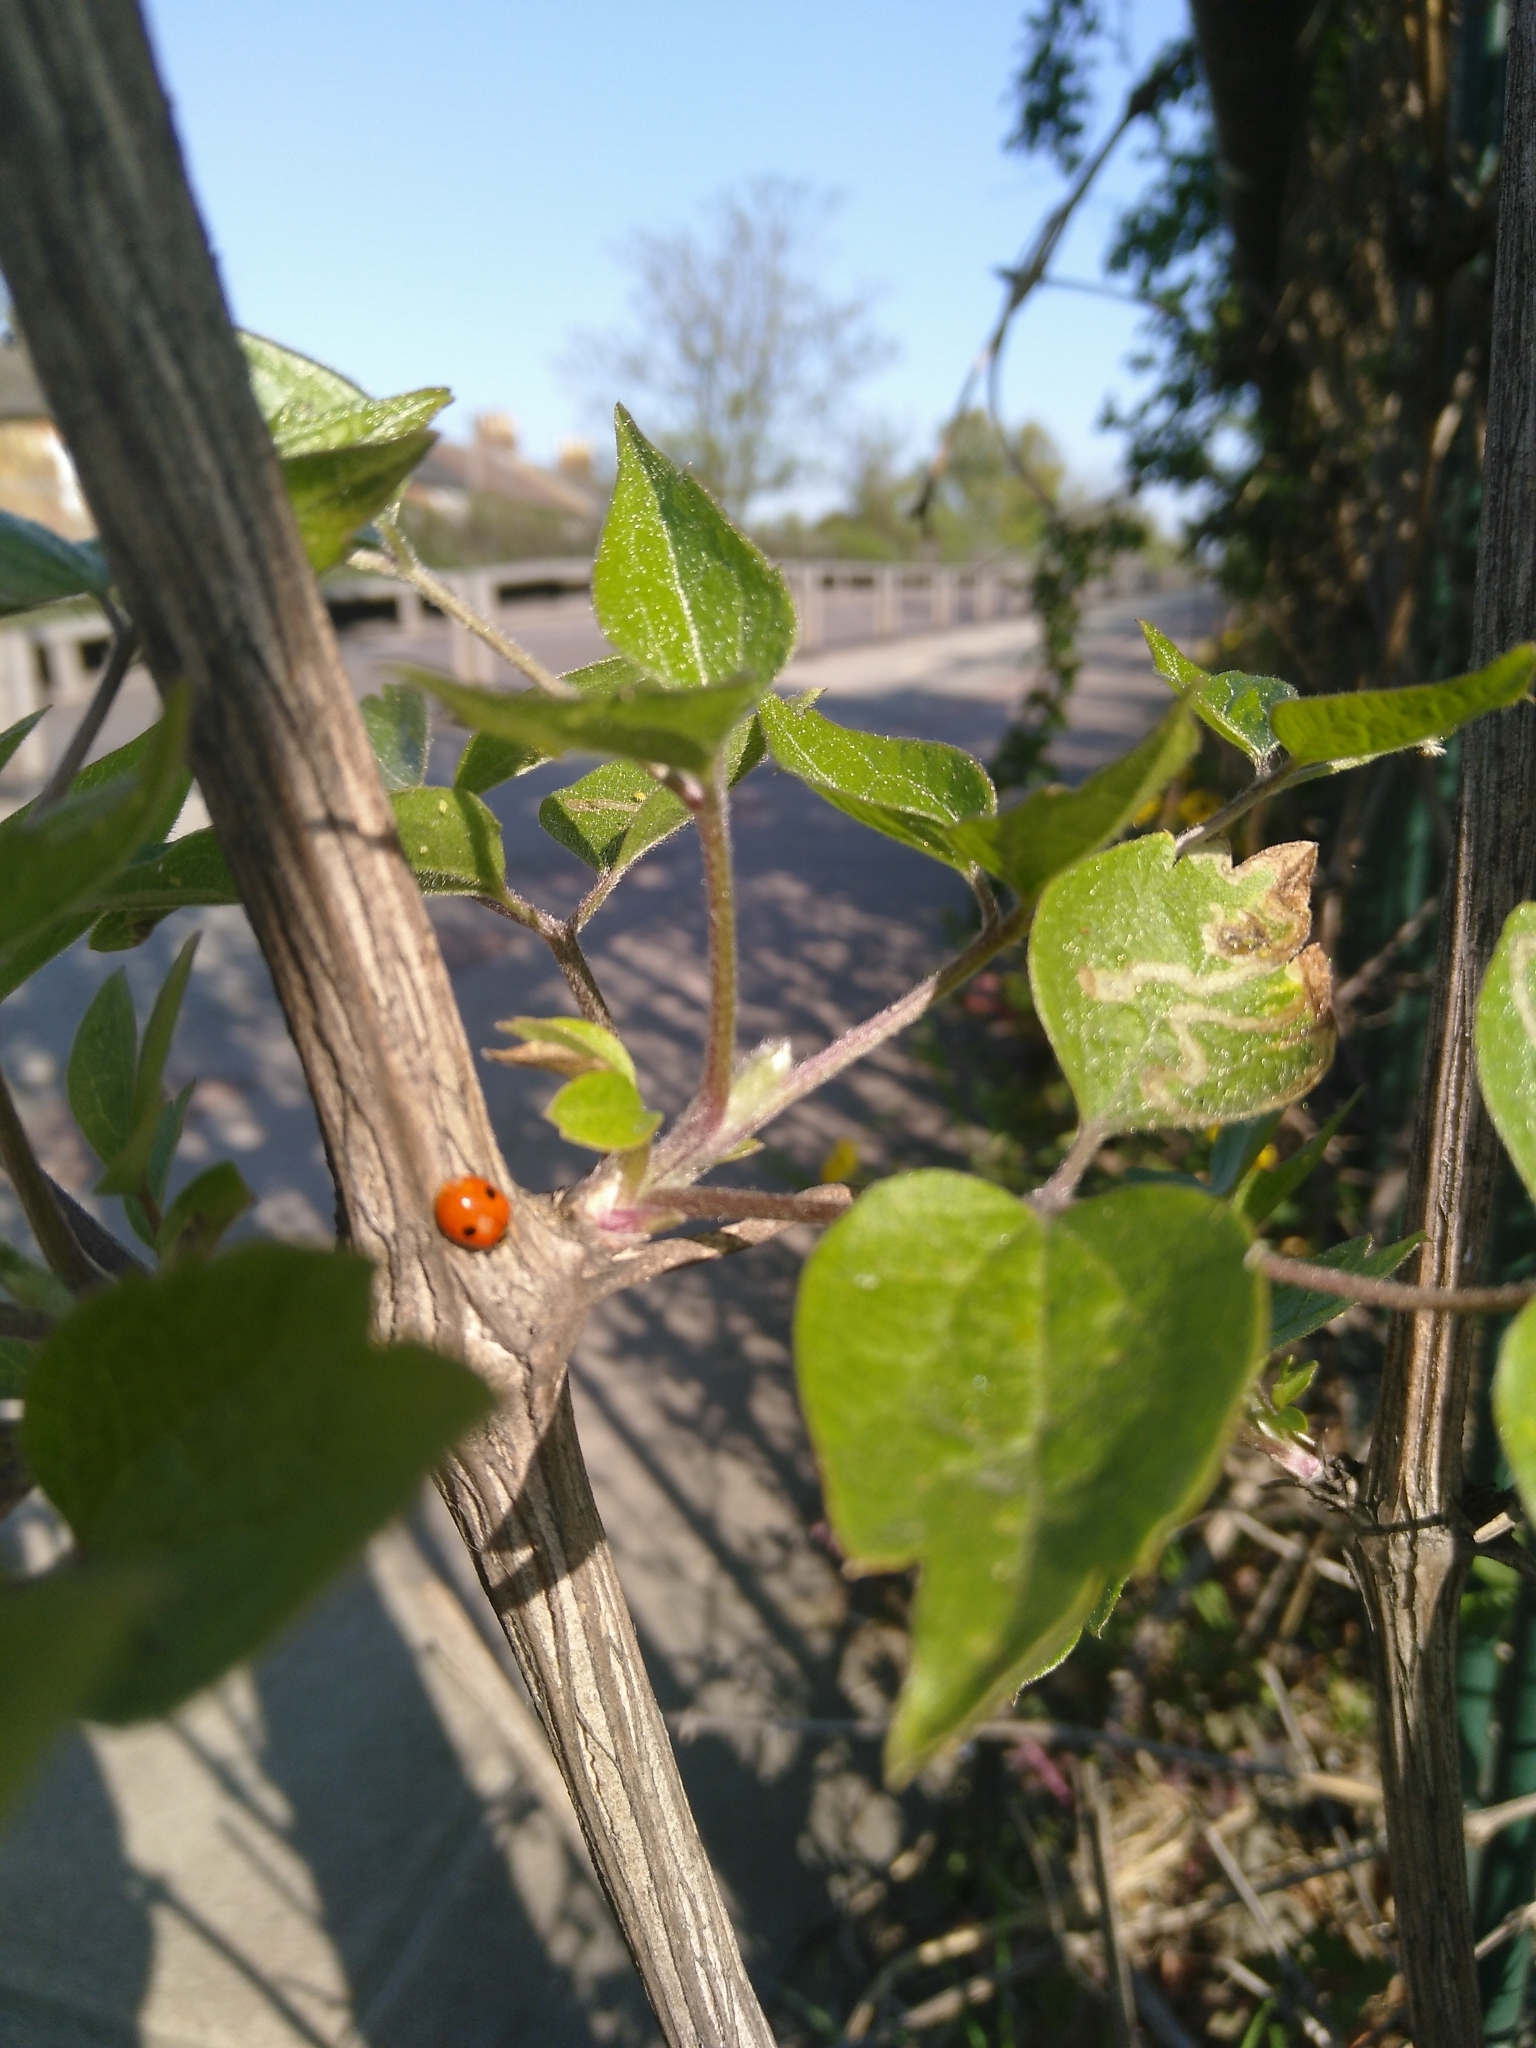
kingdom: Animalia
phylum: Arthropoda
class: Insecta
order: Coleoptera
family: Coccinellidae
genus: Adalia
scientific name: Adalia bipunctata
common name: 2-spot ladybird
